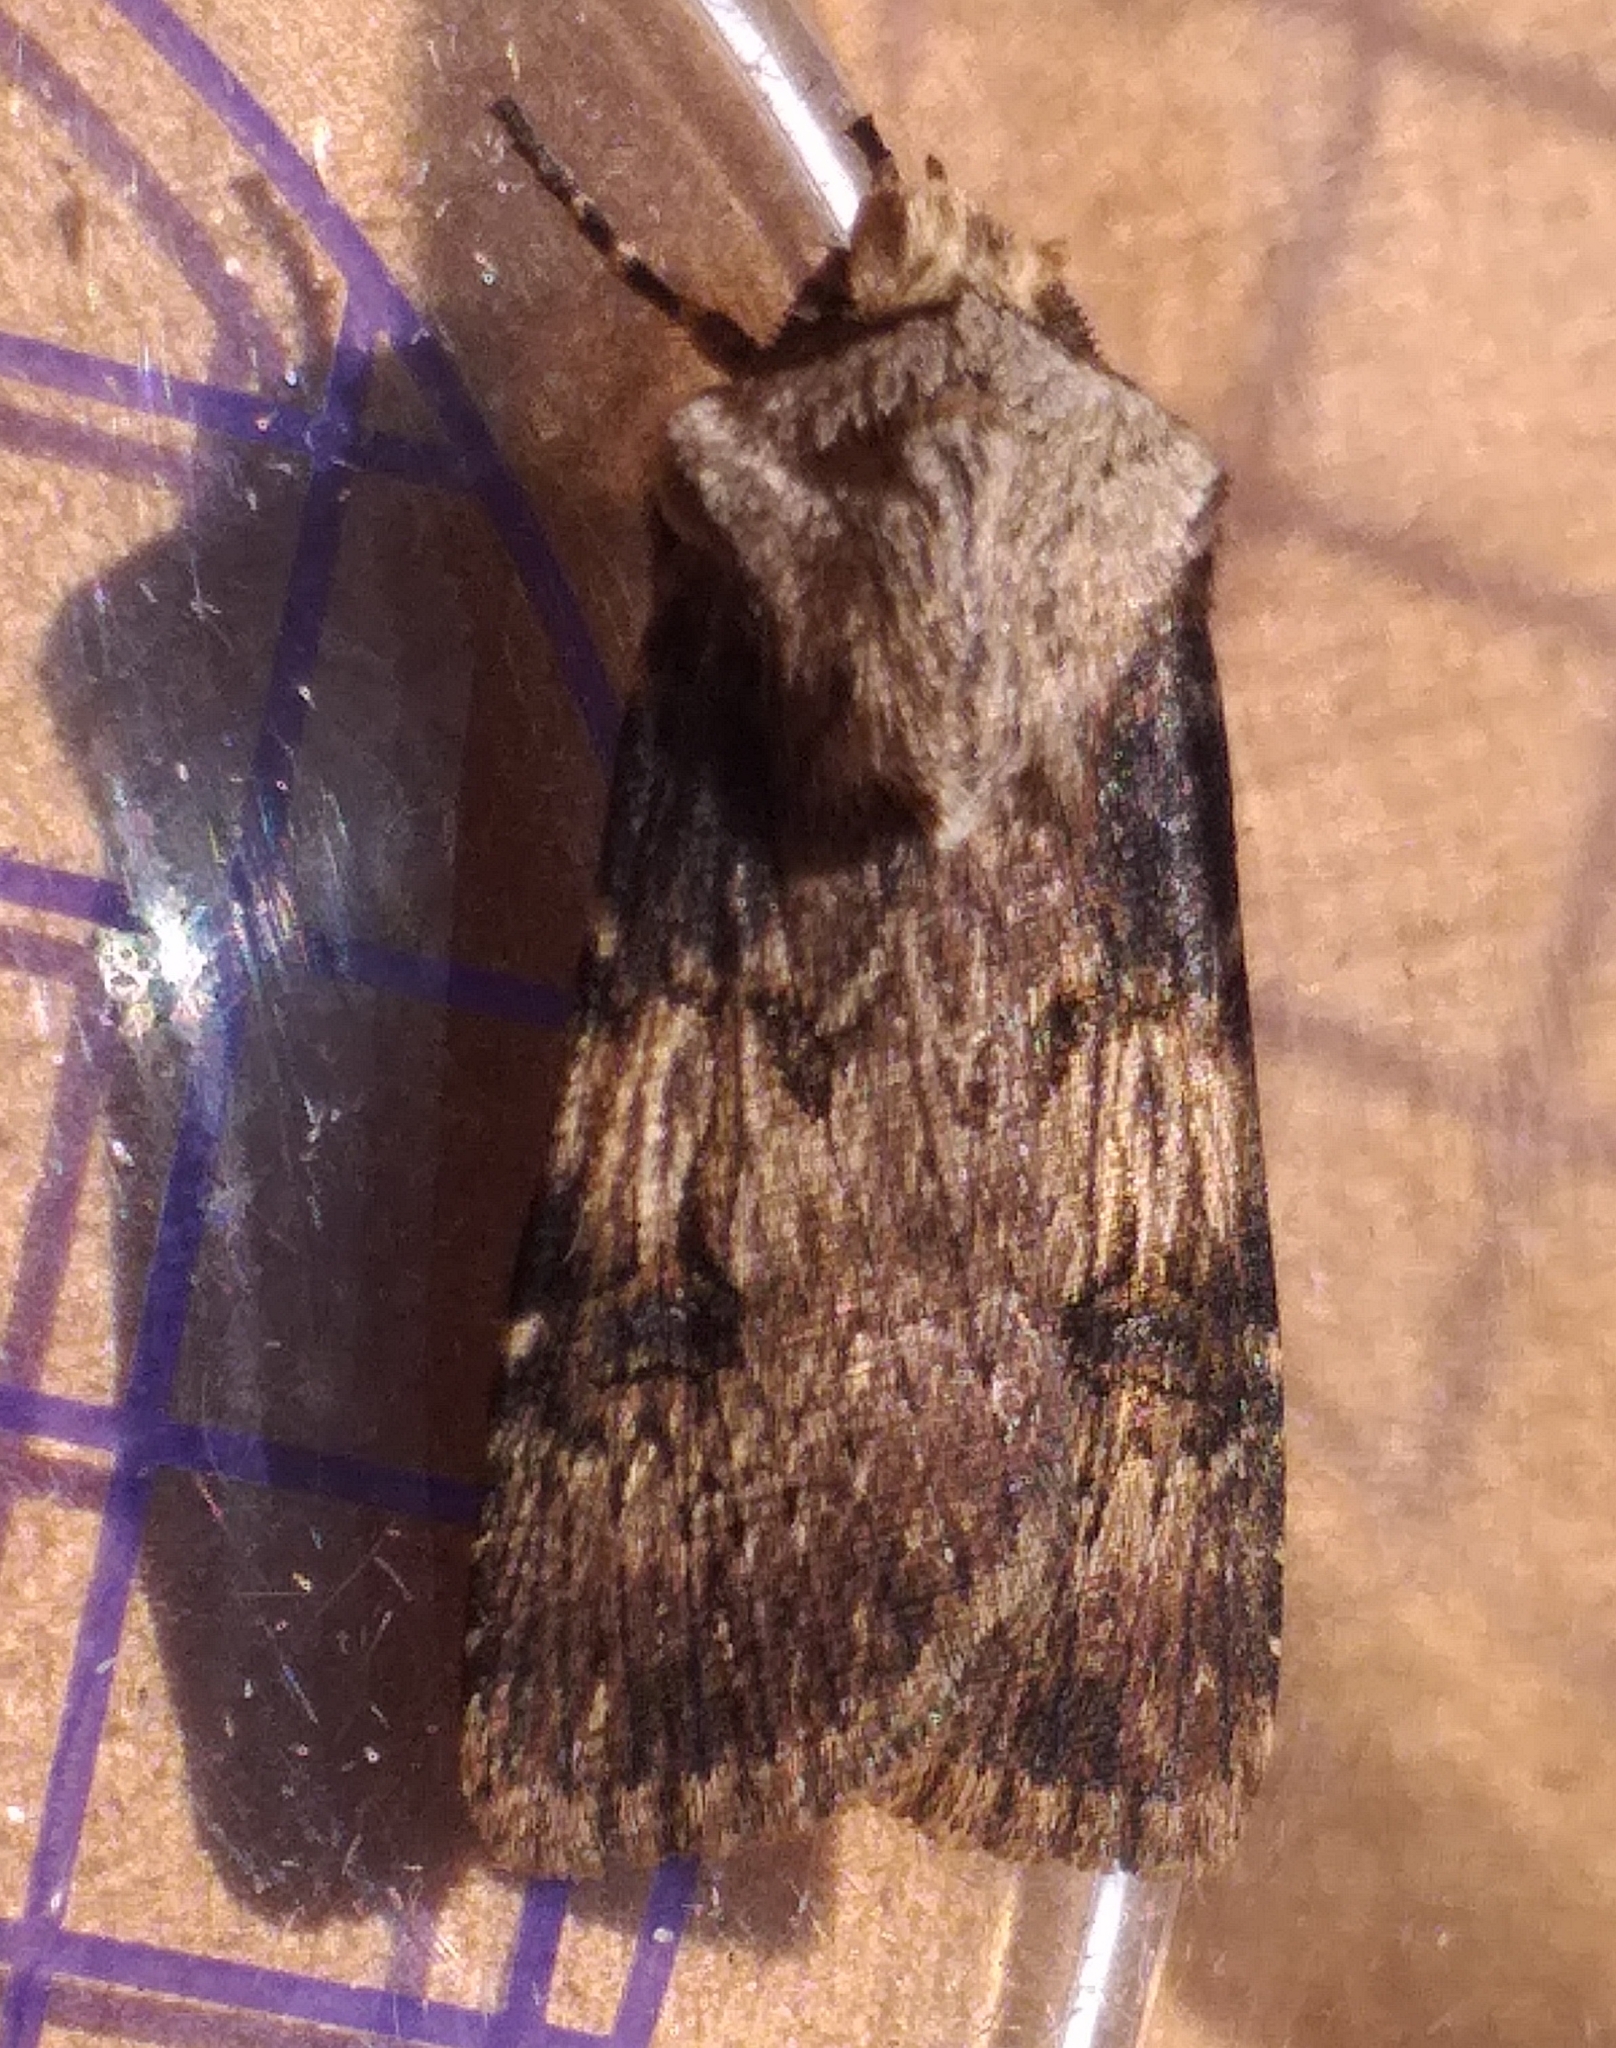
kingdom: Animalia
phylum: Arthropoda
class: Insecta
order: Lepidoptera
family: Noctuidae
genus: Agrotis
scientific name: Agrotis puta
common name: Shuttle-shaped dart
